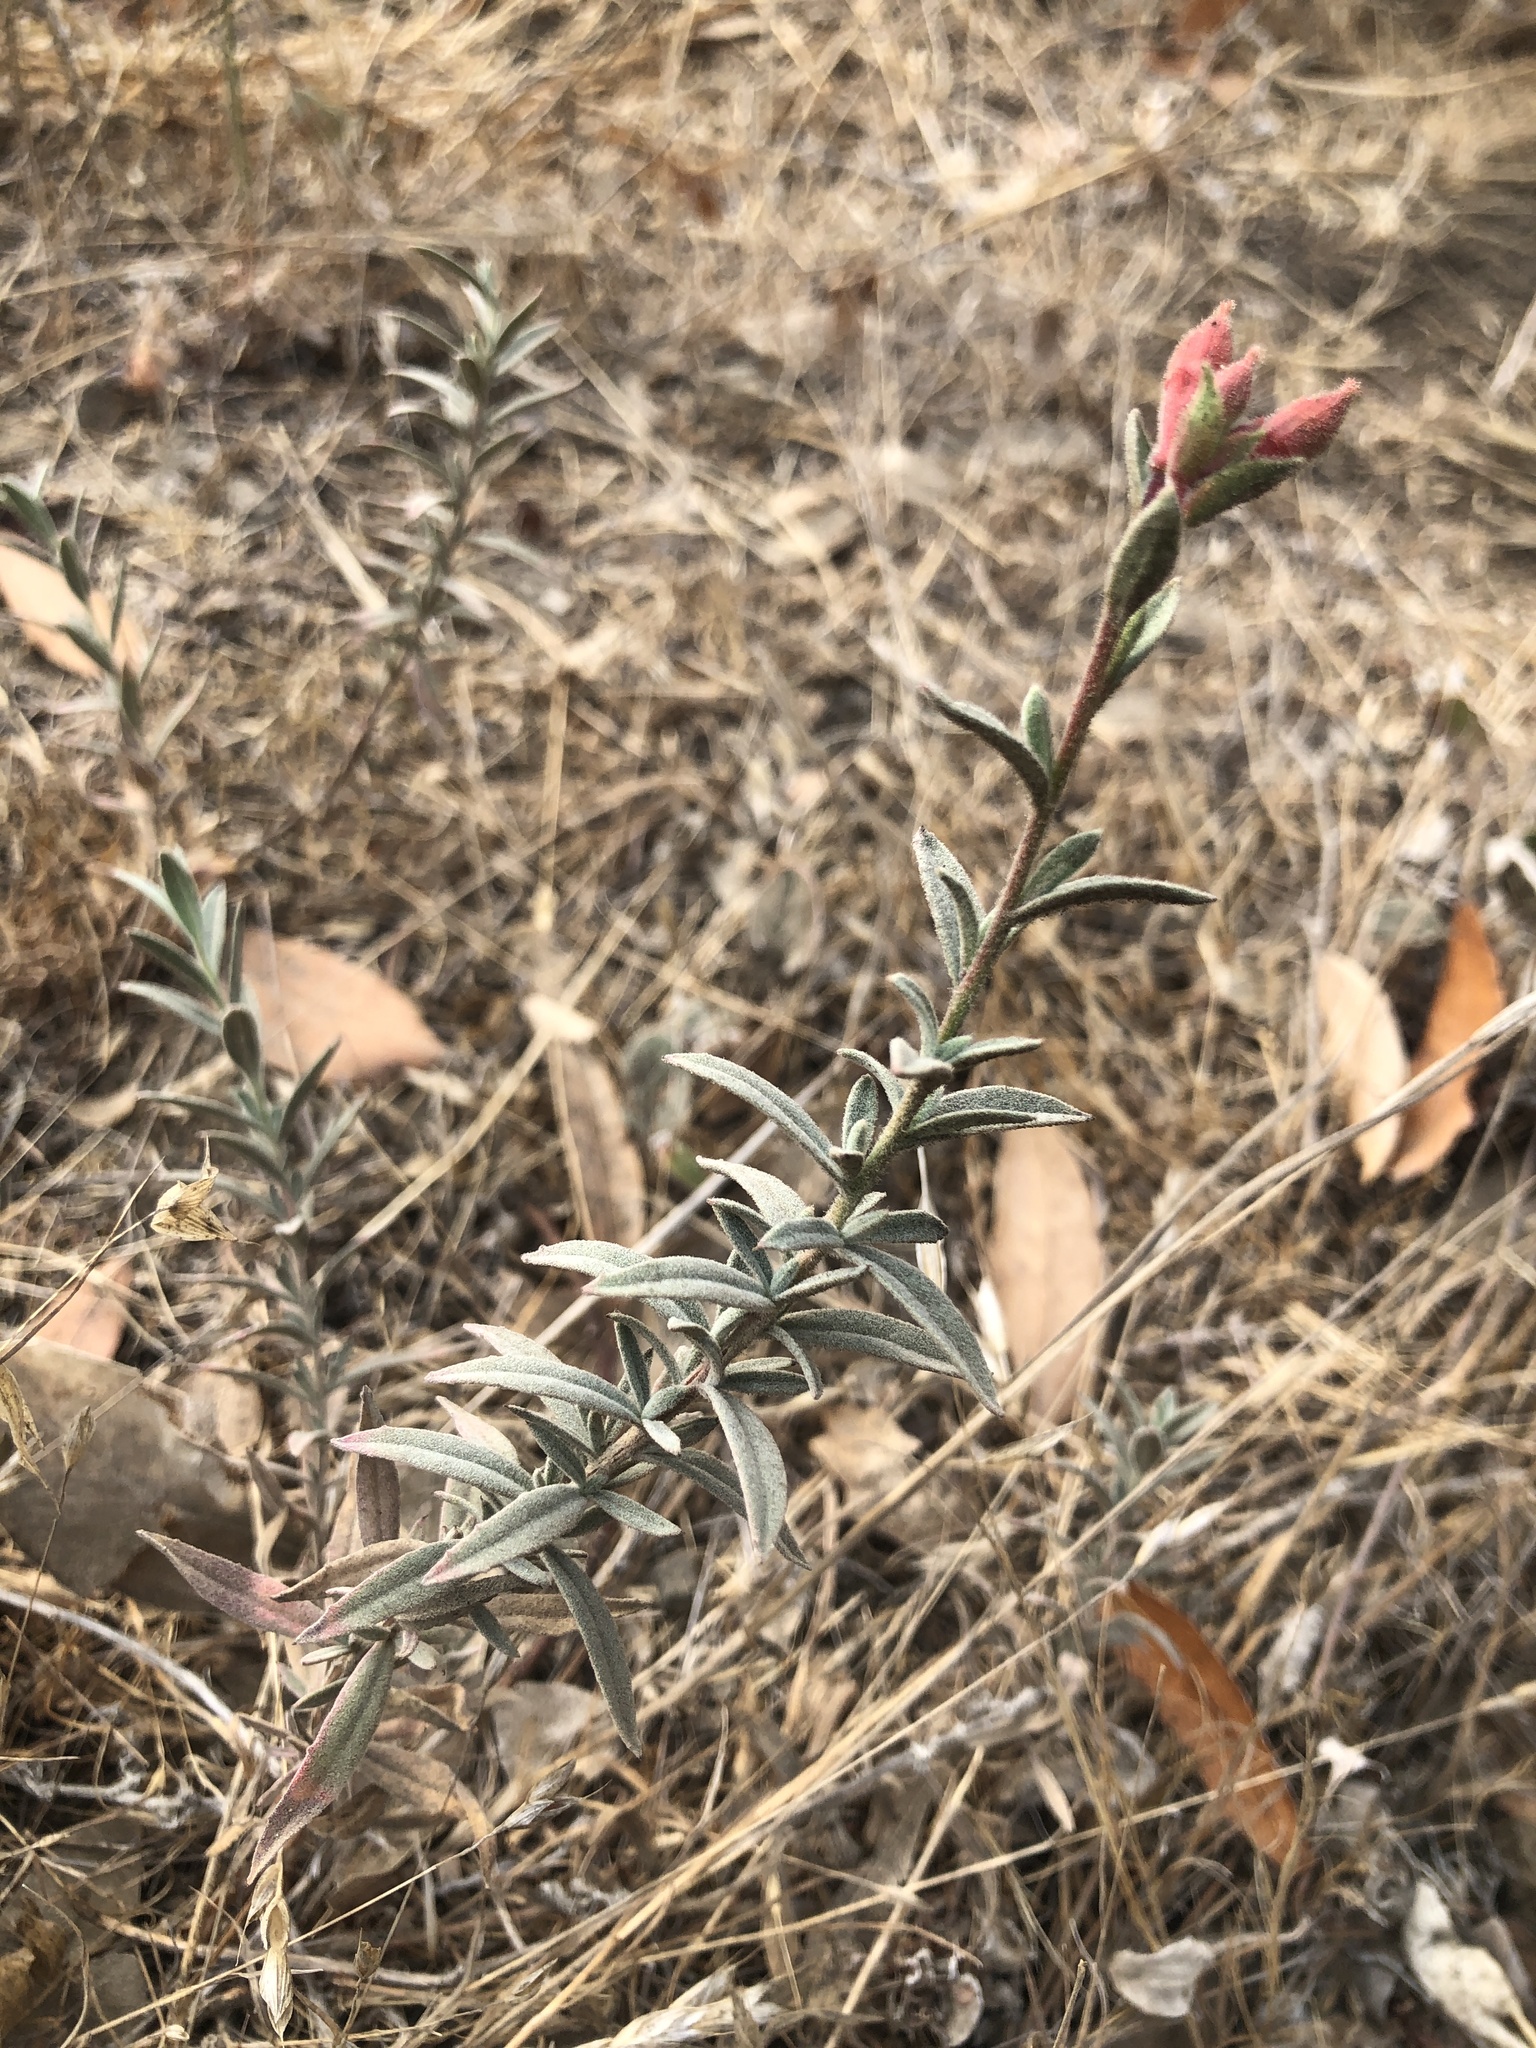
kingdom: Plantae
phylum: Tracheophyta
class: Magnoliopsida
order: Myrtales
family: Onagraceae
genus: Epilobium
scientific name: Epilobium canum
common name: California-fuchsia
